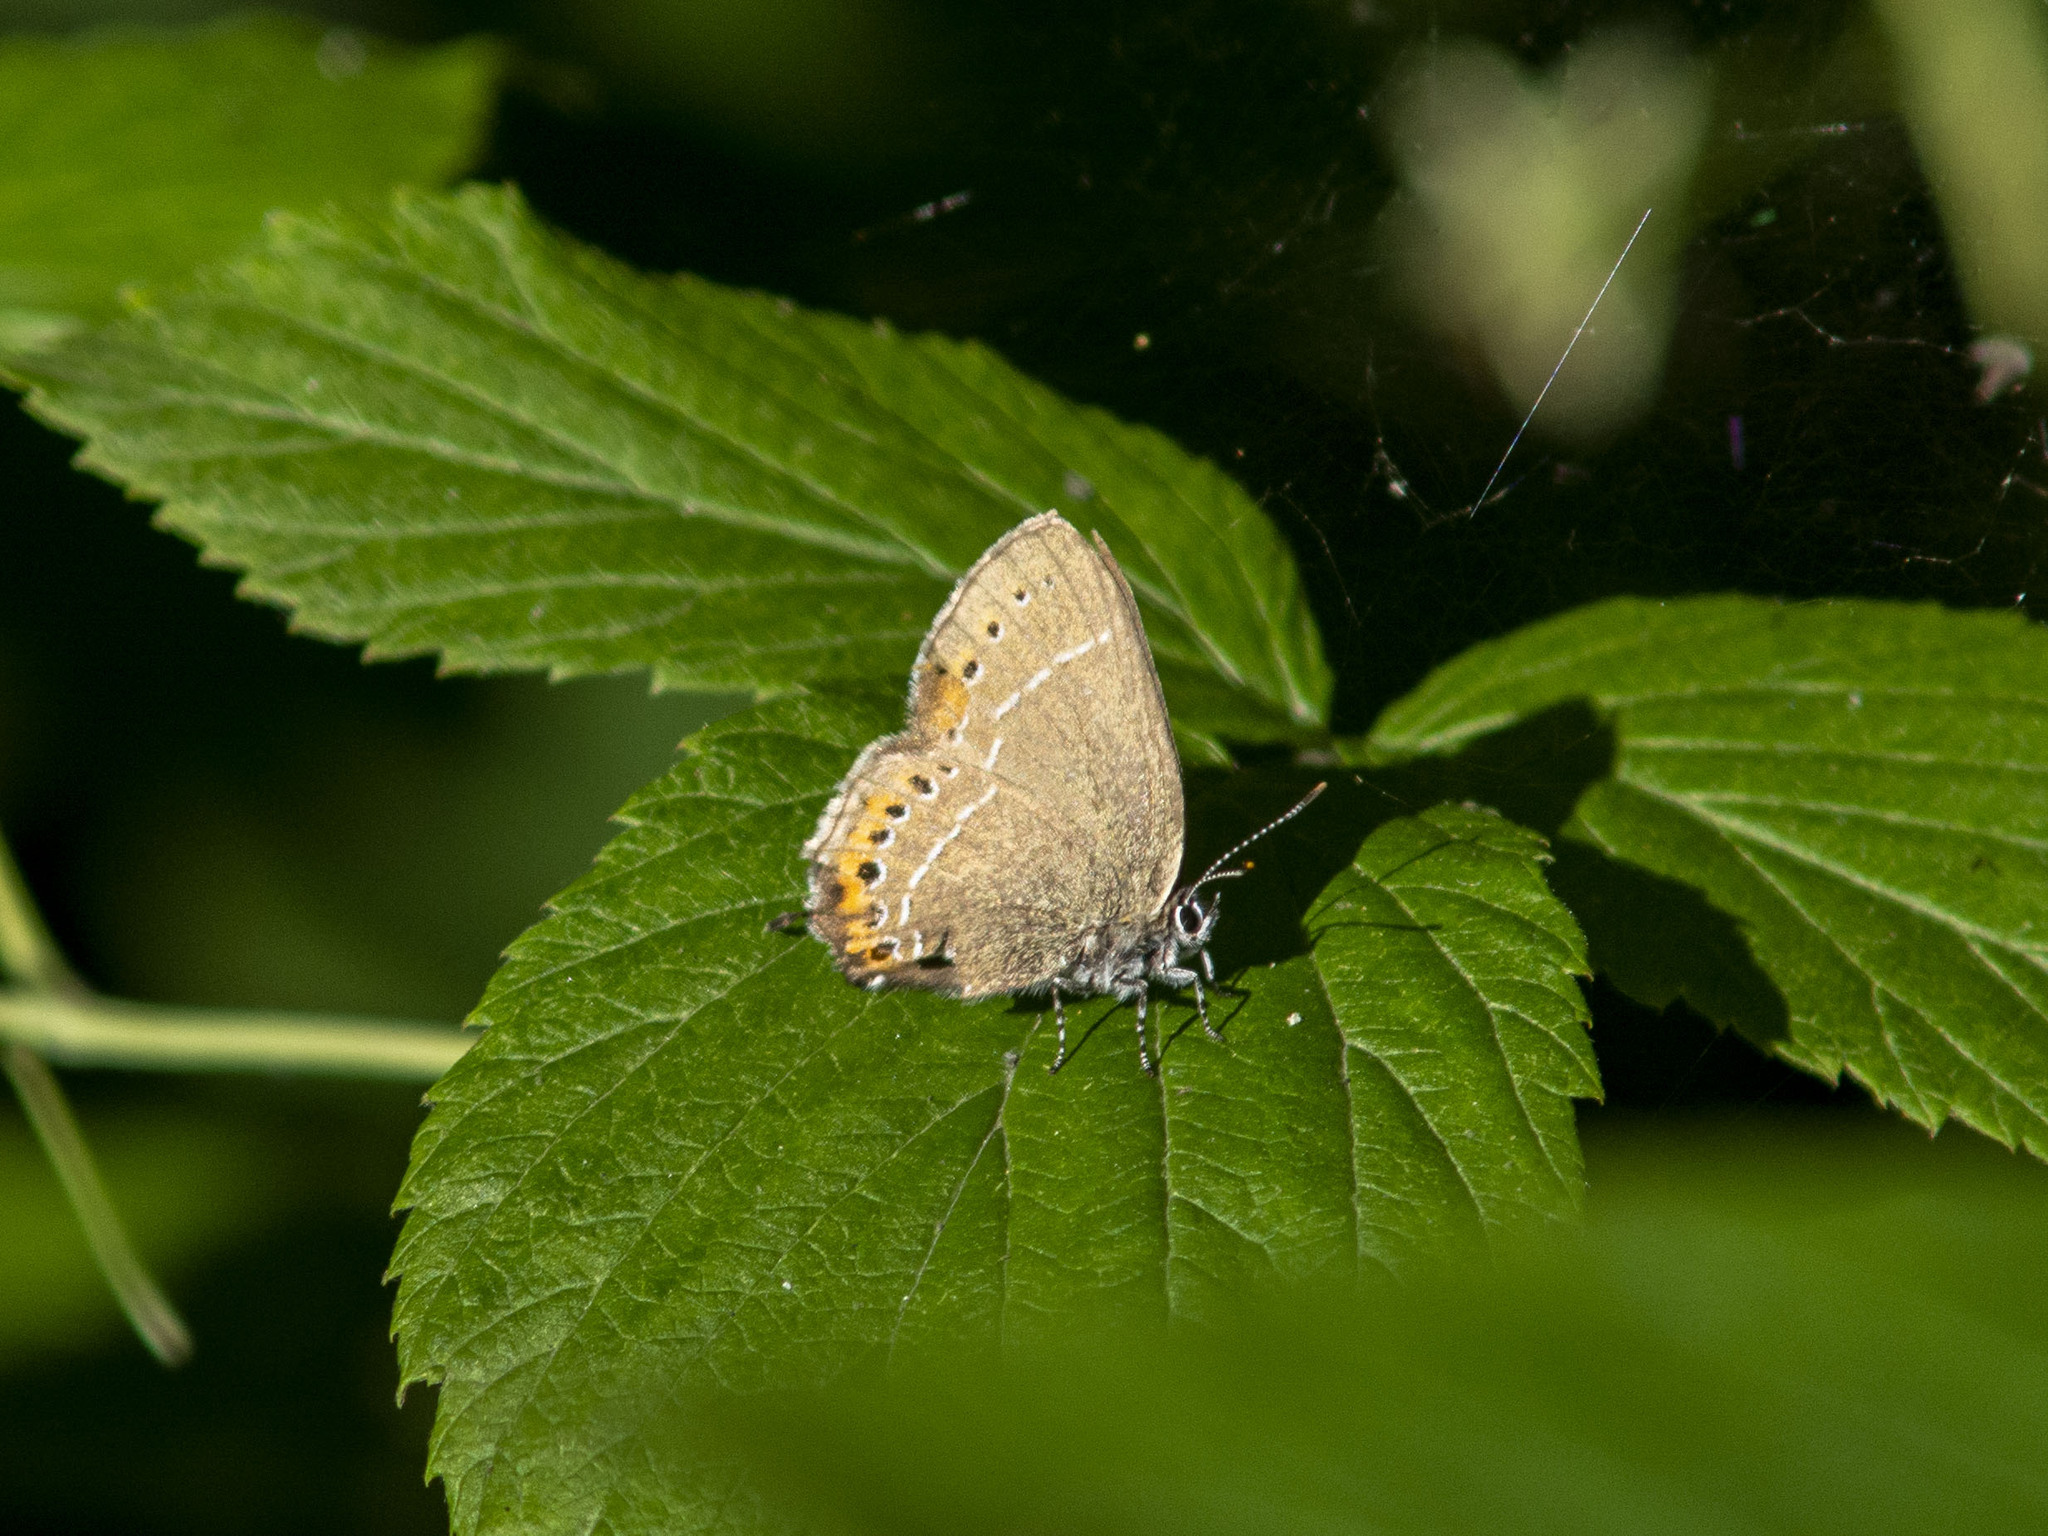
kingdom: Animalia
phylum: Arthropoda
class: Insecta
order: Lepidoptera
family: Lycaenidae
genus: Fixsenia
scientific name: Fixsenia pruni
